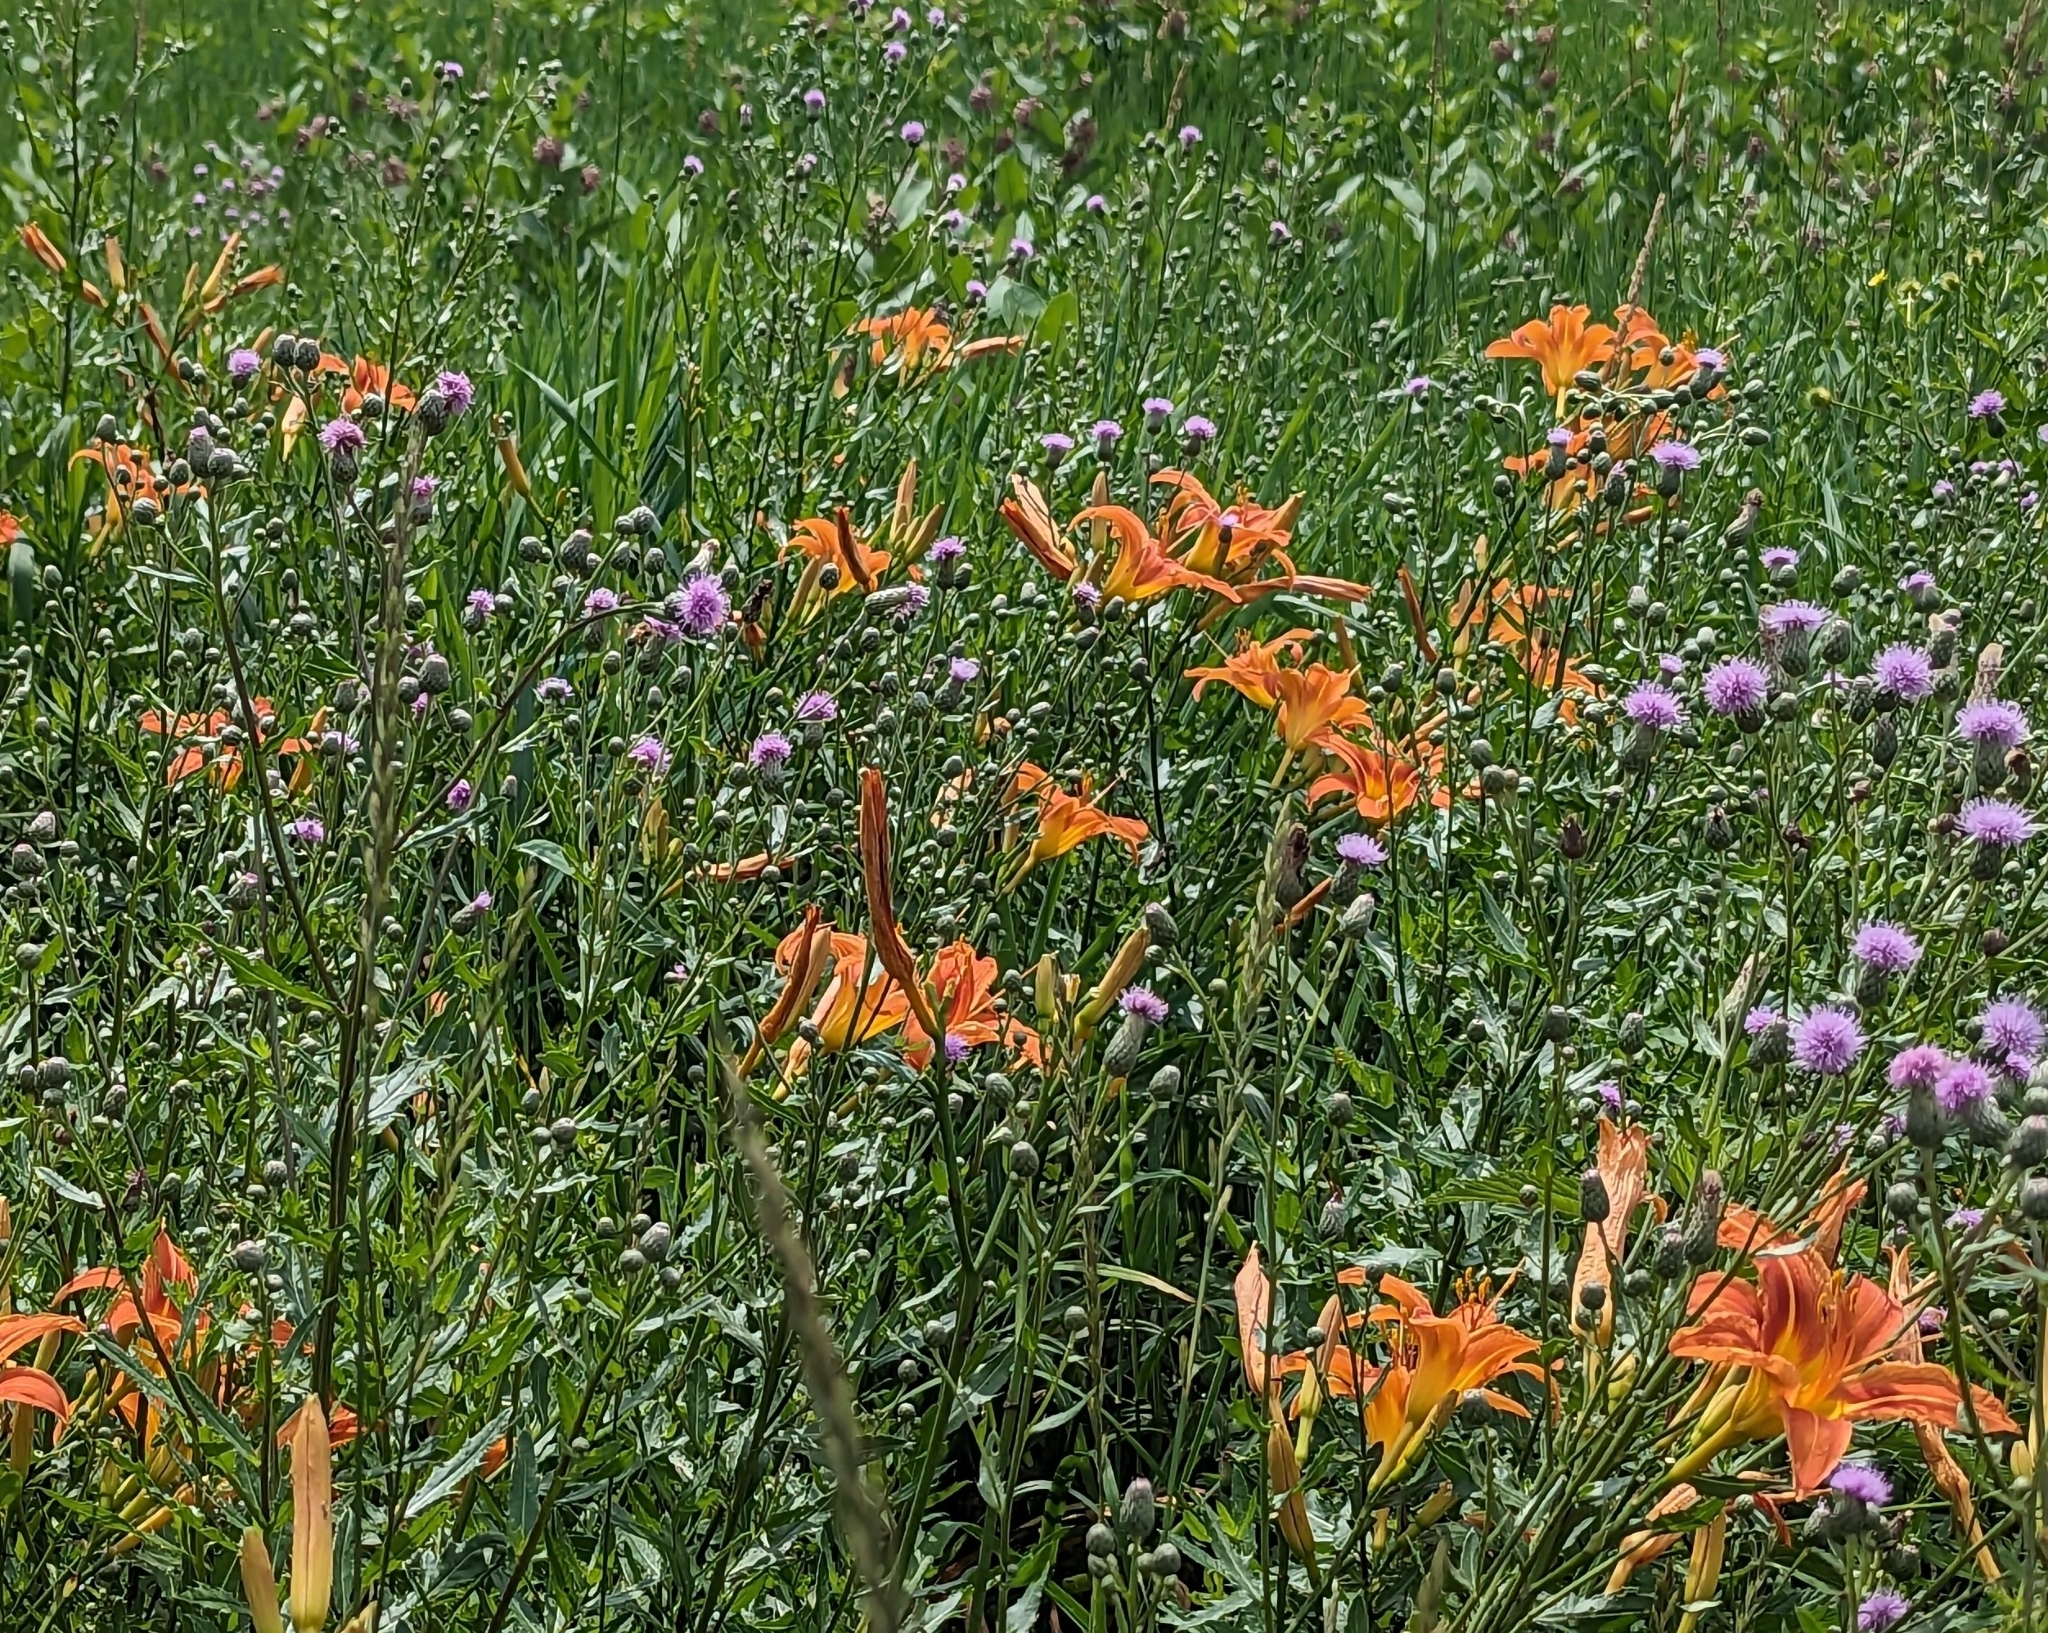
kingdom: Plantae
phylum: Tracheophyta
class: Magnoliopsida
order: Asterales
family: Asteraceae
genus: Cirsium
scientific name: Cirsium arvense
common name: Creeping thistle
